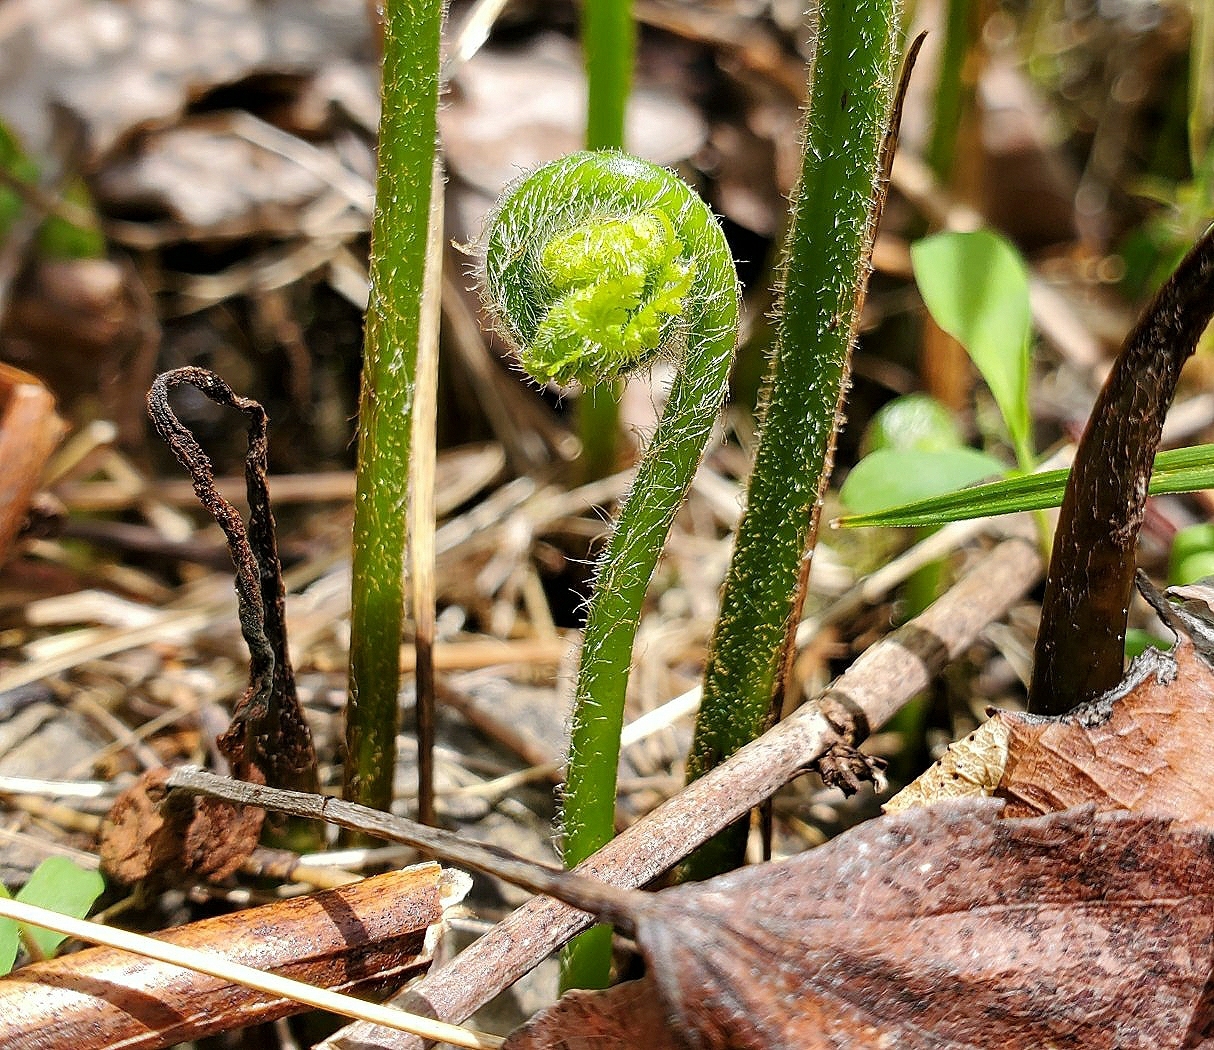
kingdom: Plantae
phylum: Tracheophyta
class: Polypodiopsida
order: Polypodiales
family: Dennstaedtiaceae
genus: Sitobolium
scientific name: Sitobolium punctilobum
